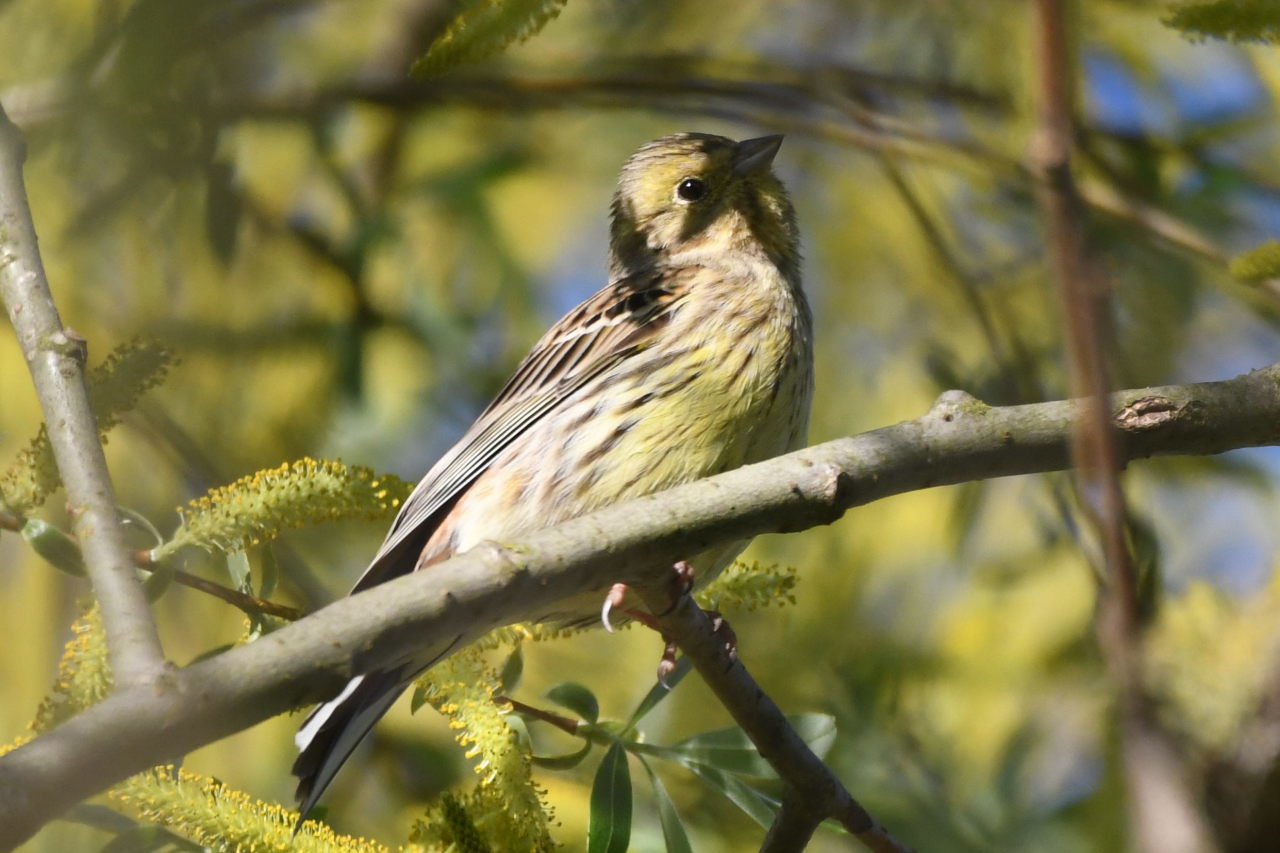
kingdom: Animalia
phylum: Chordata
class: Aves
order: Passeriformes
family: Emberizidae
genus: Emberiza
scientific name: Emberiza citrinella
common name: Yellowhammer
